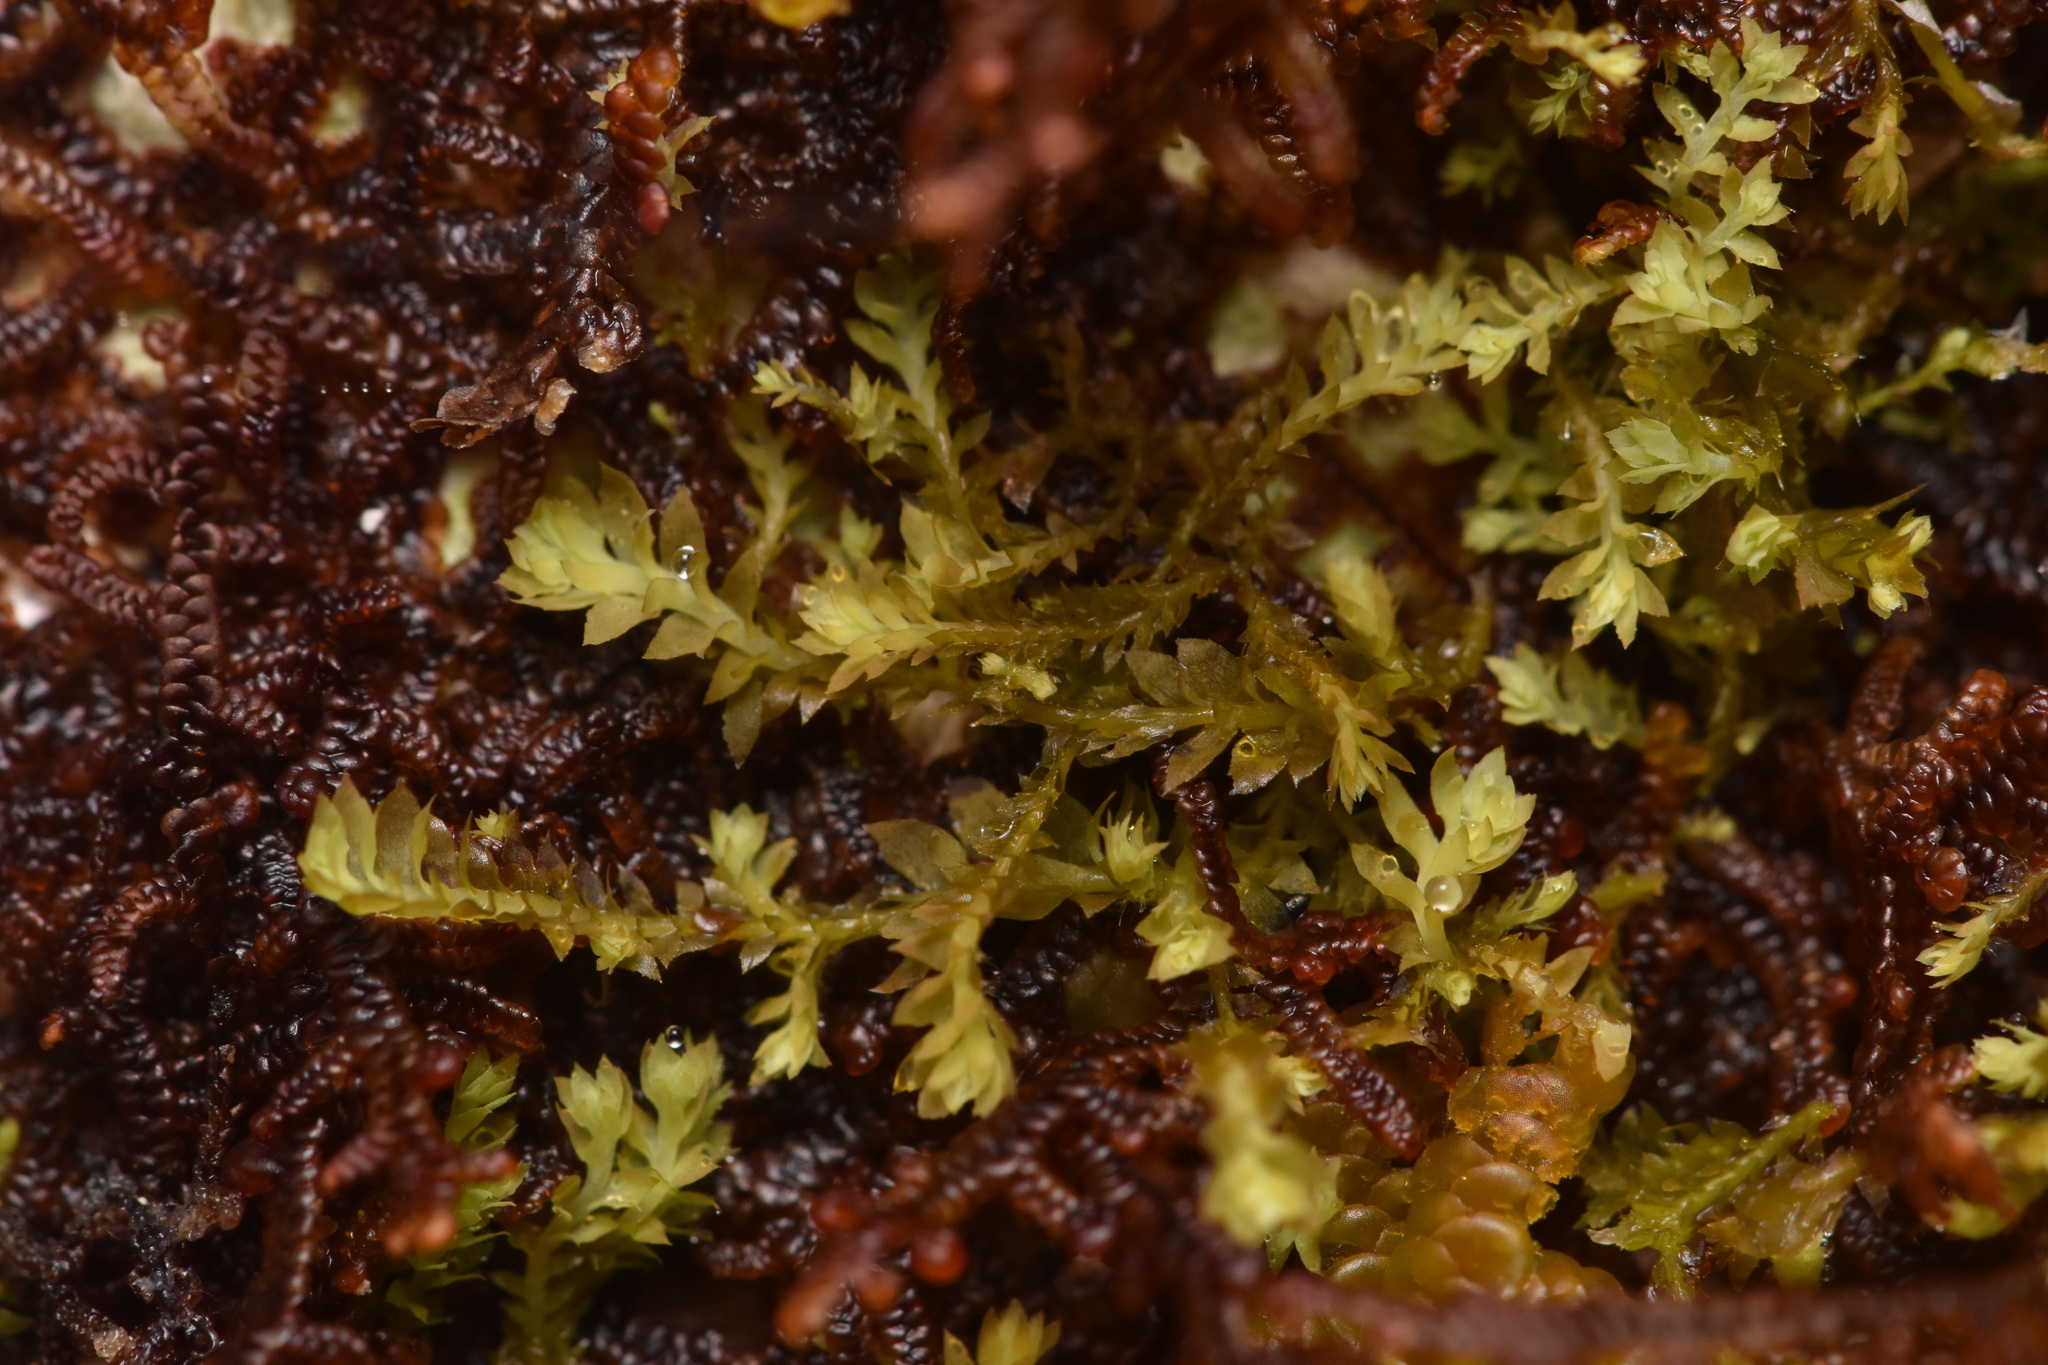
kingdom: Plantae
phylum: Marchantiophyta
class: Jungermanniopsida
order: Jungermanniales
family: Scapaniaceae
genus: Douinia
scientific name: Douinia ovata
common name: Waxy earwort
